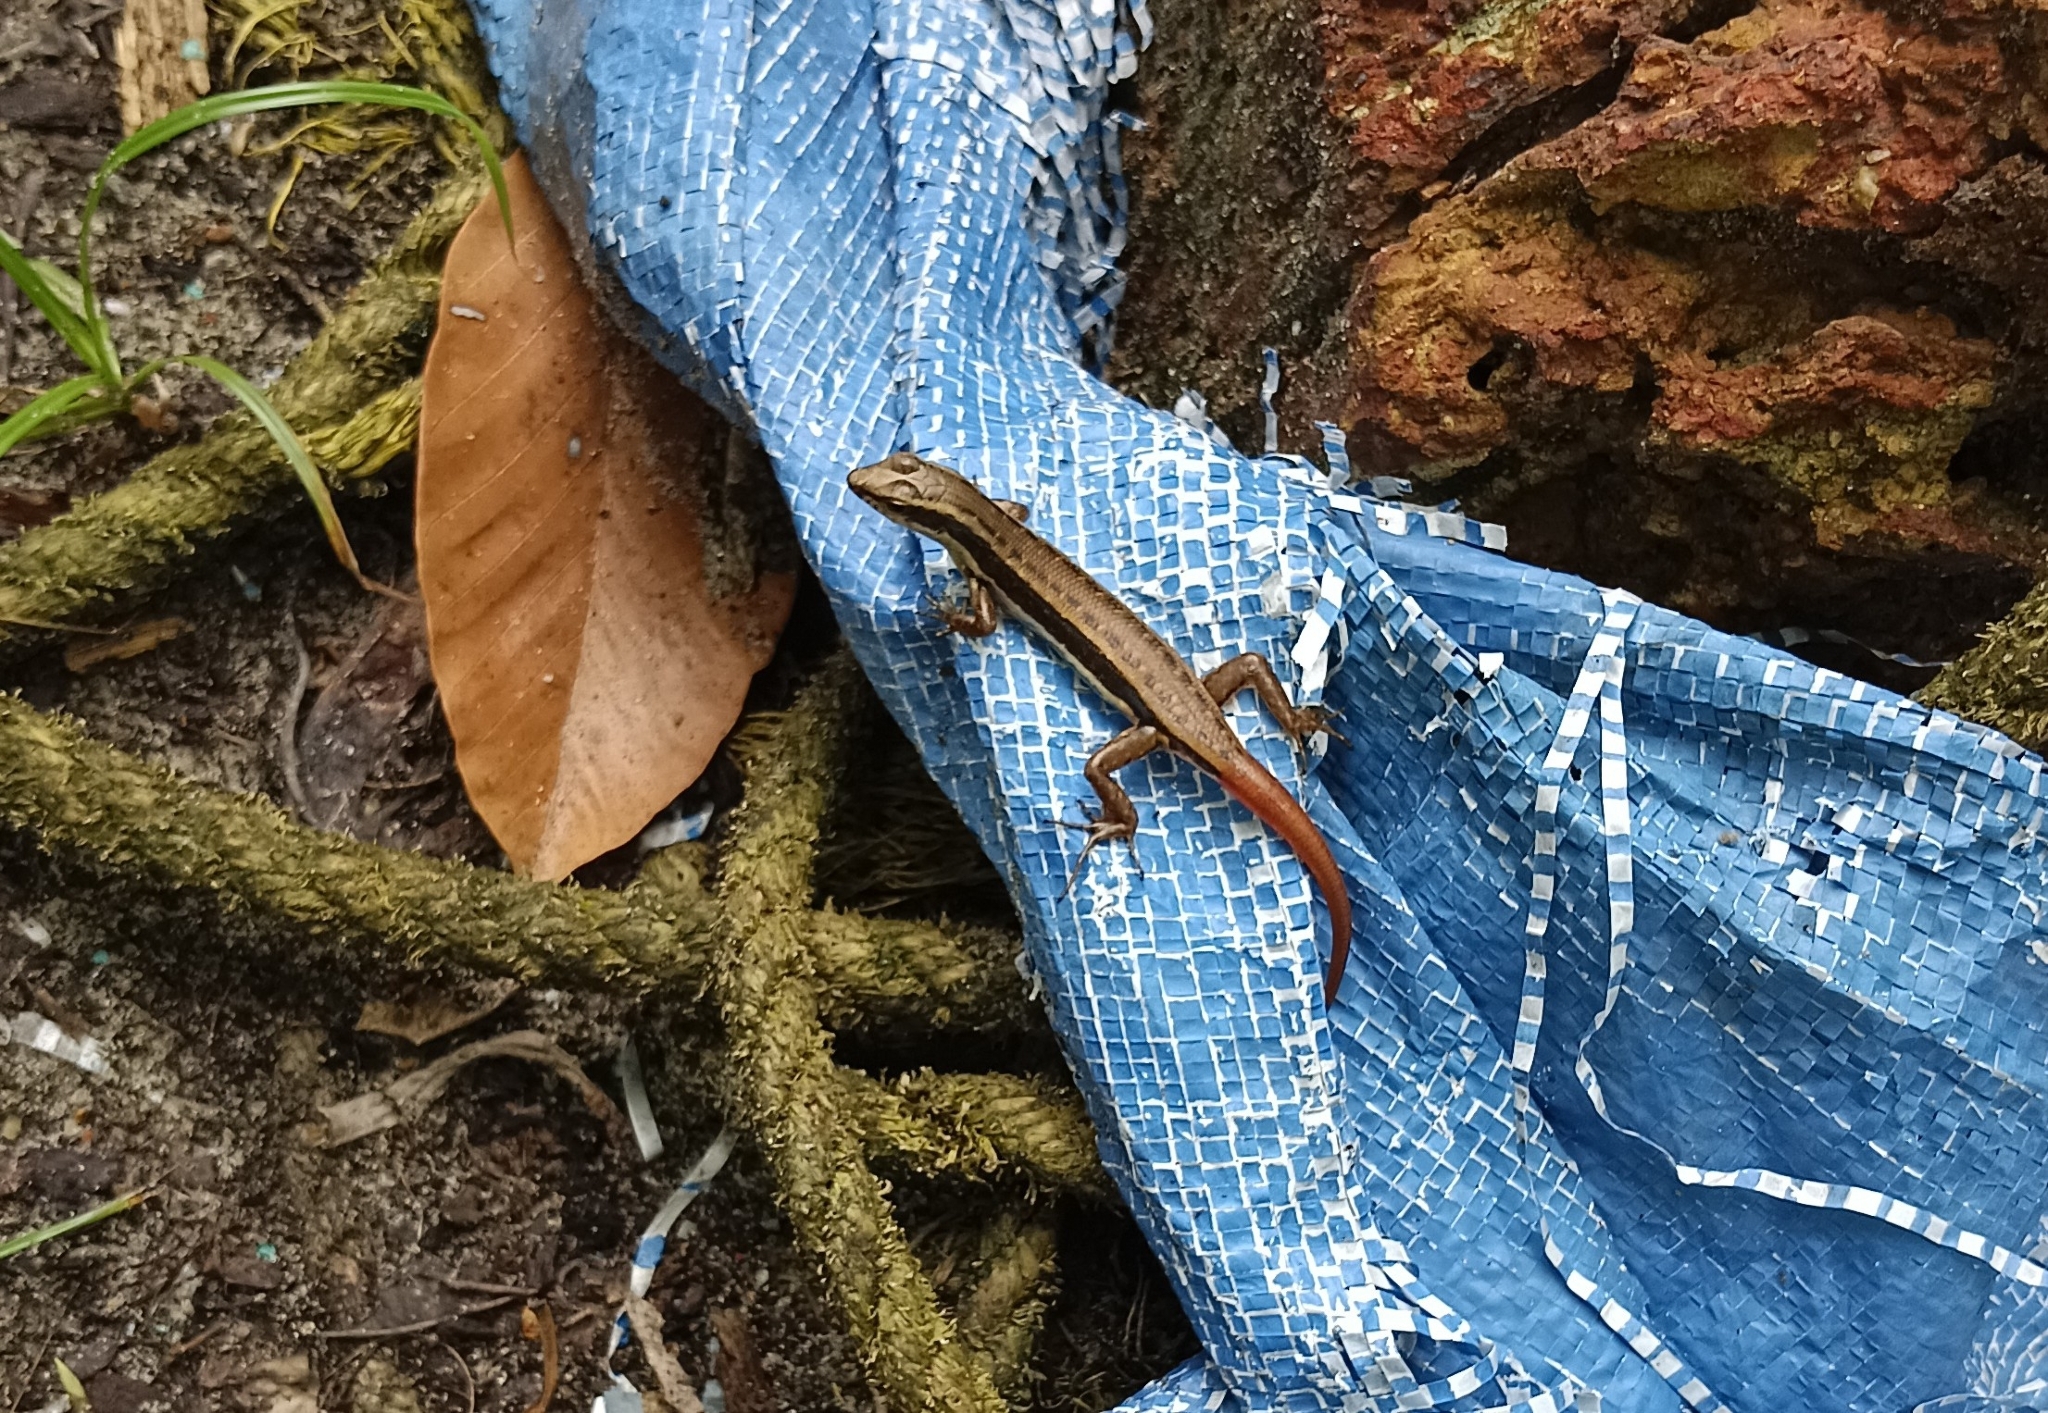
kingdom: Animalia
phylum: Chordata
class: Squamata
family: Scincidae
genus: Sphenomorphus
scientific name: Sphenomorphus dussumieri
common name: Dussumier's forest skink
